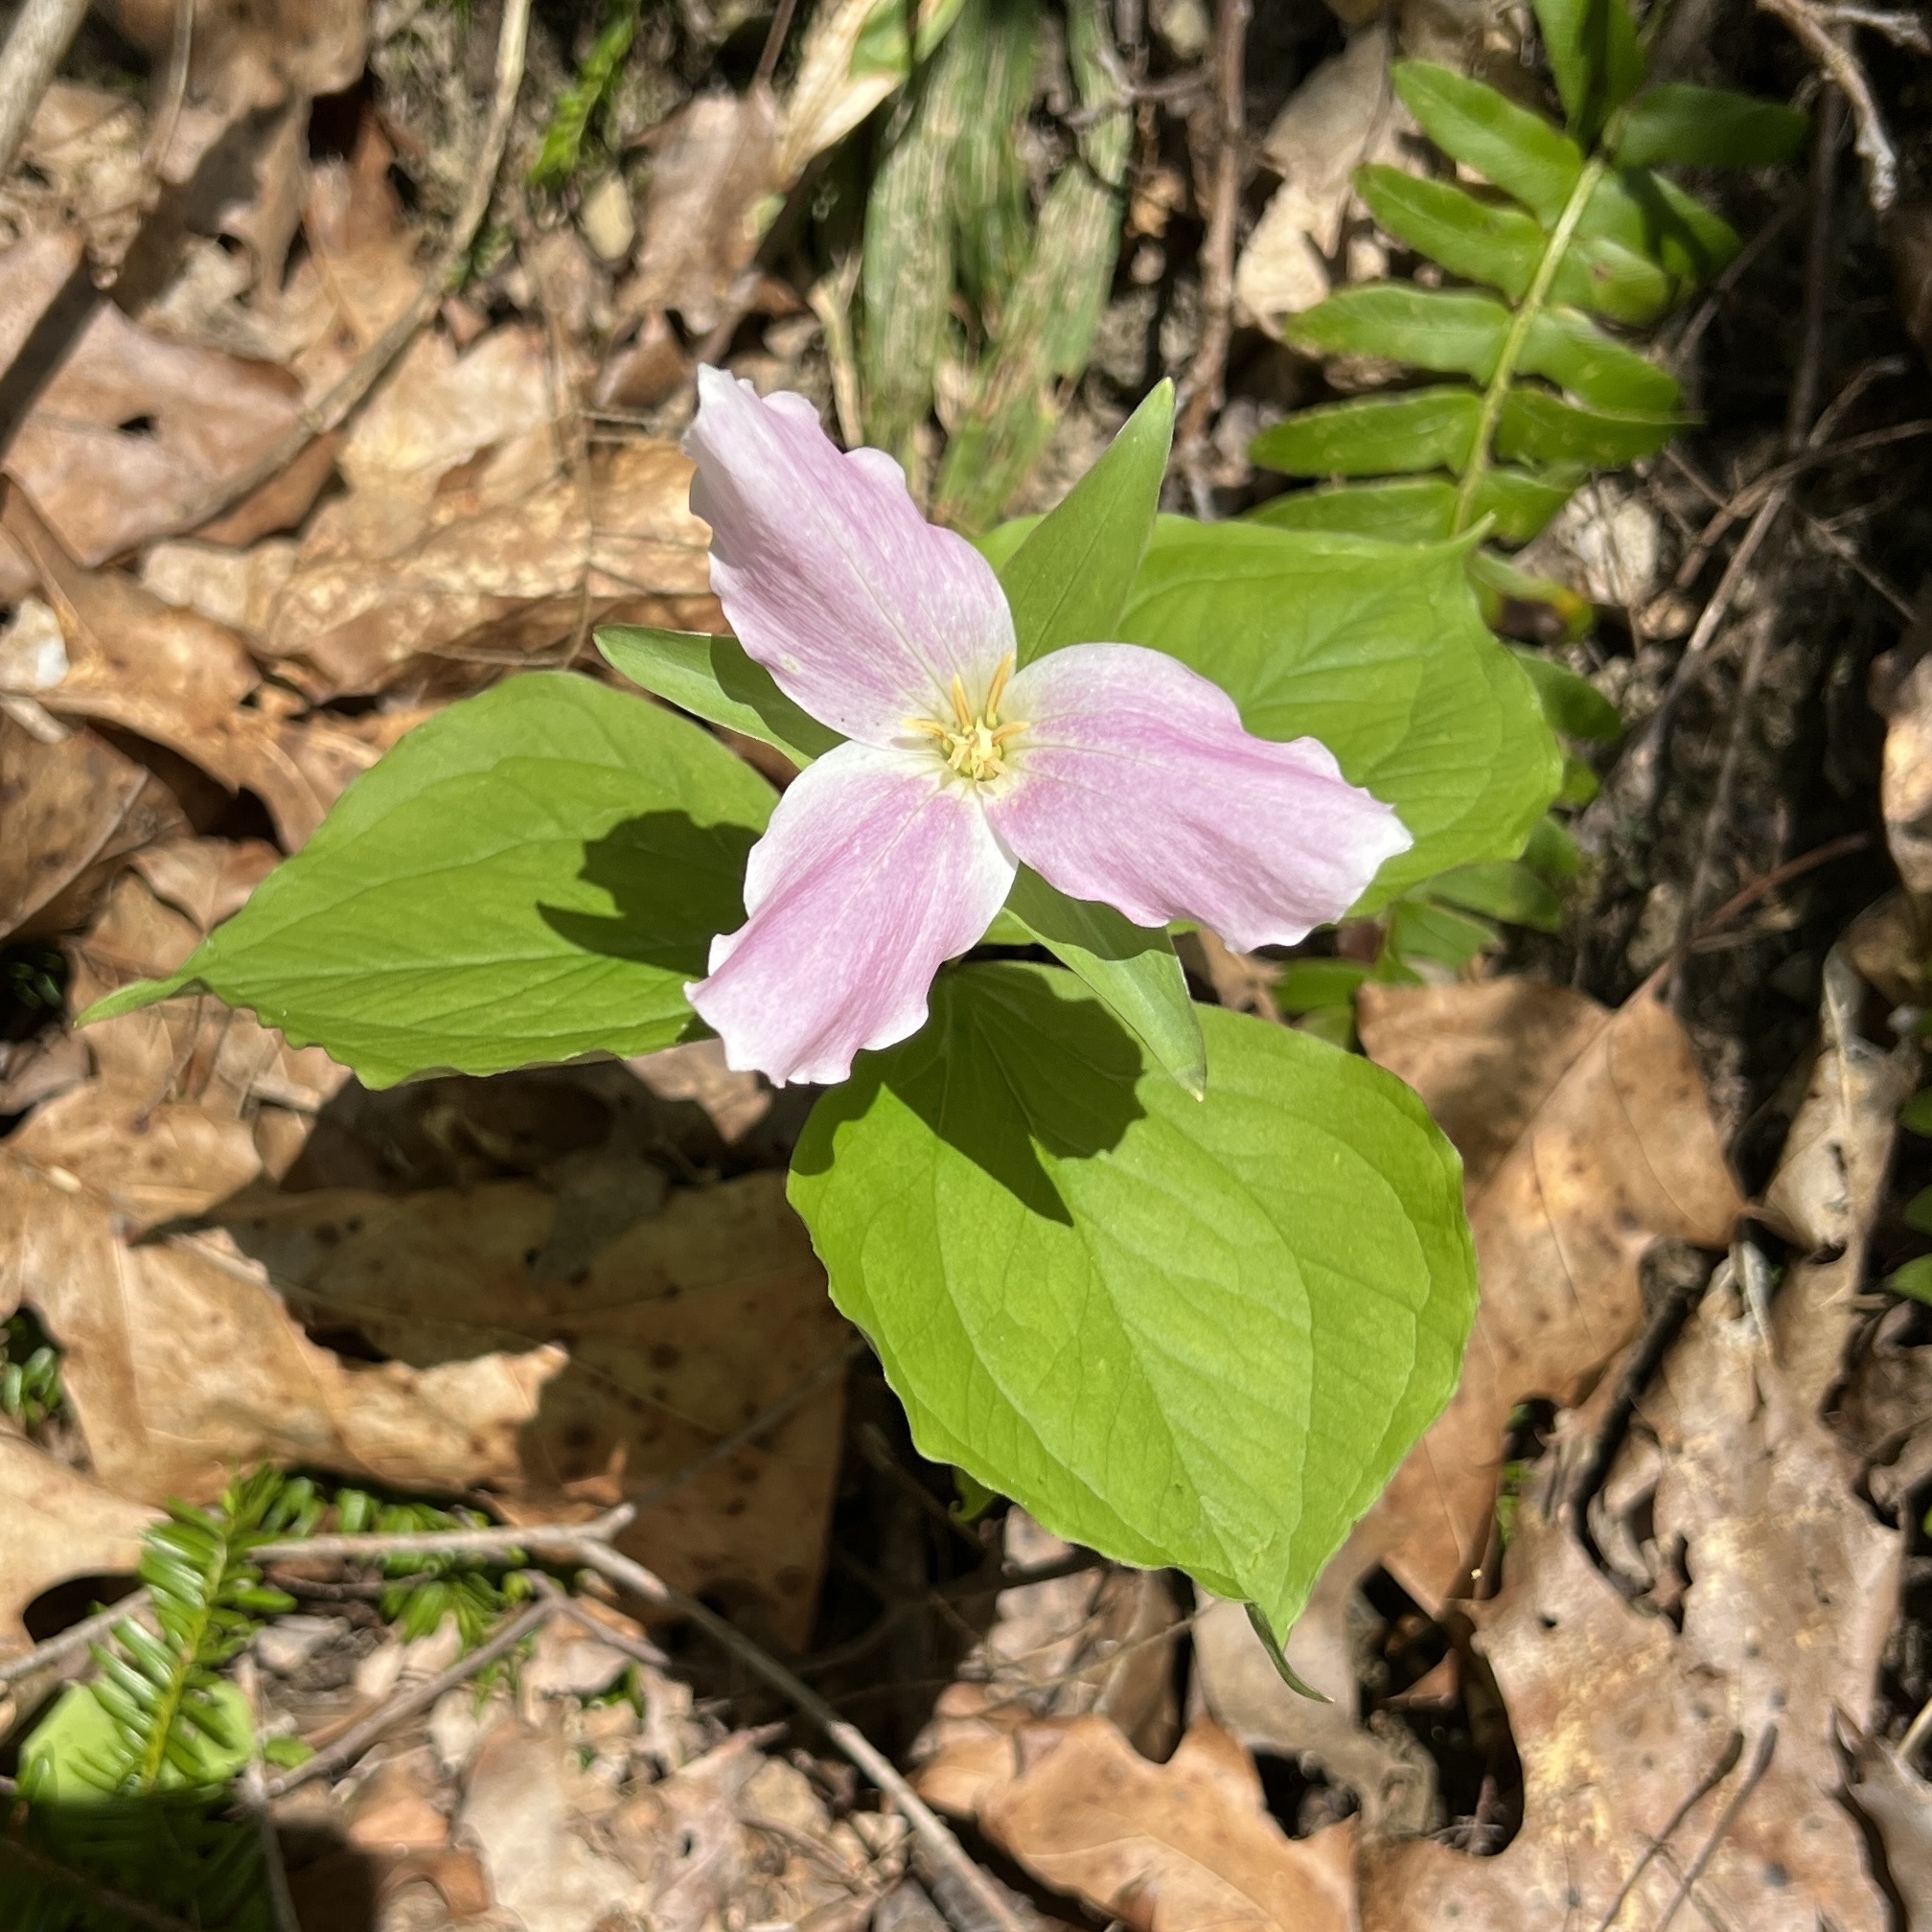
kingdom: Plantae
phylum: Tracheophyta
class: Liliopsida
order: Liliales
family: Melanthiaceae
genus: Trillium
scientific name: Trillium grandiflorum
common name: Great white trillium
